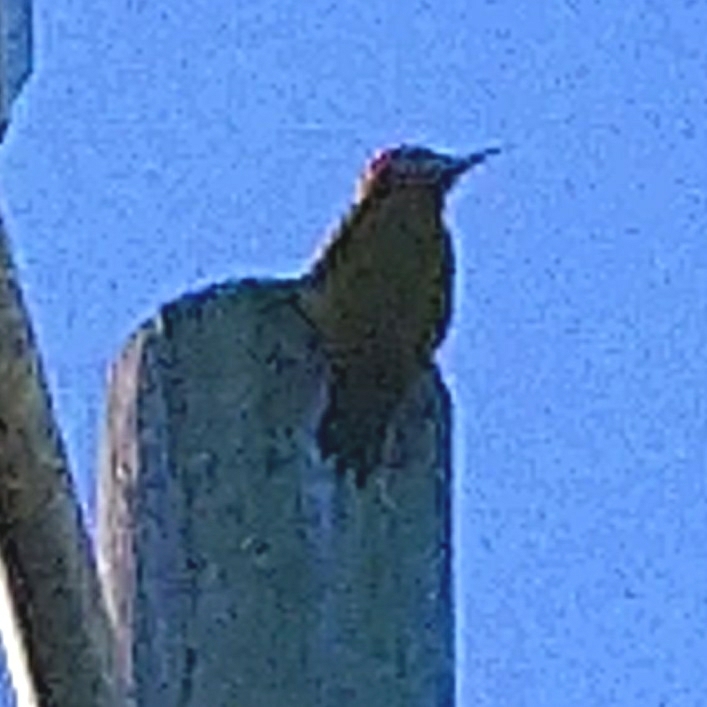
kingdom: Animalia
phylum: Chordata
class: Aves
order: Piciformes
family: Picidae
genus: Dendropicos
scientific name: Dendropicos griseocephalus
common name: Olive woodpecker
